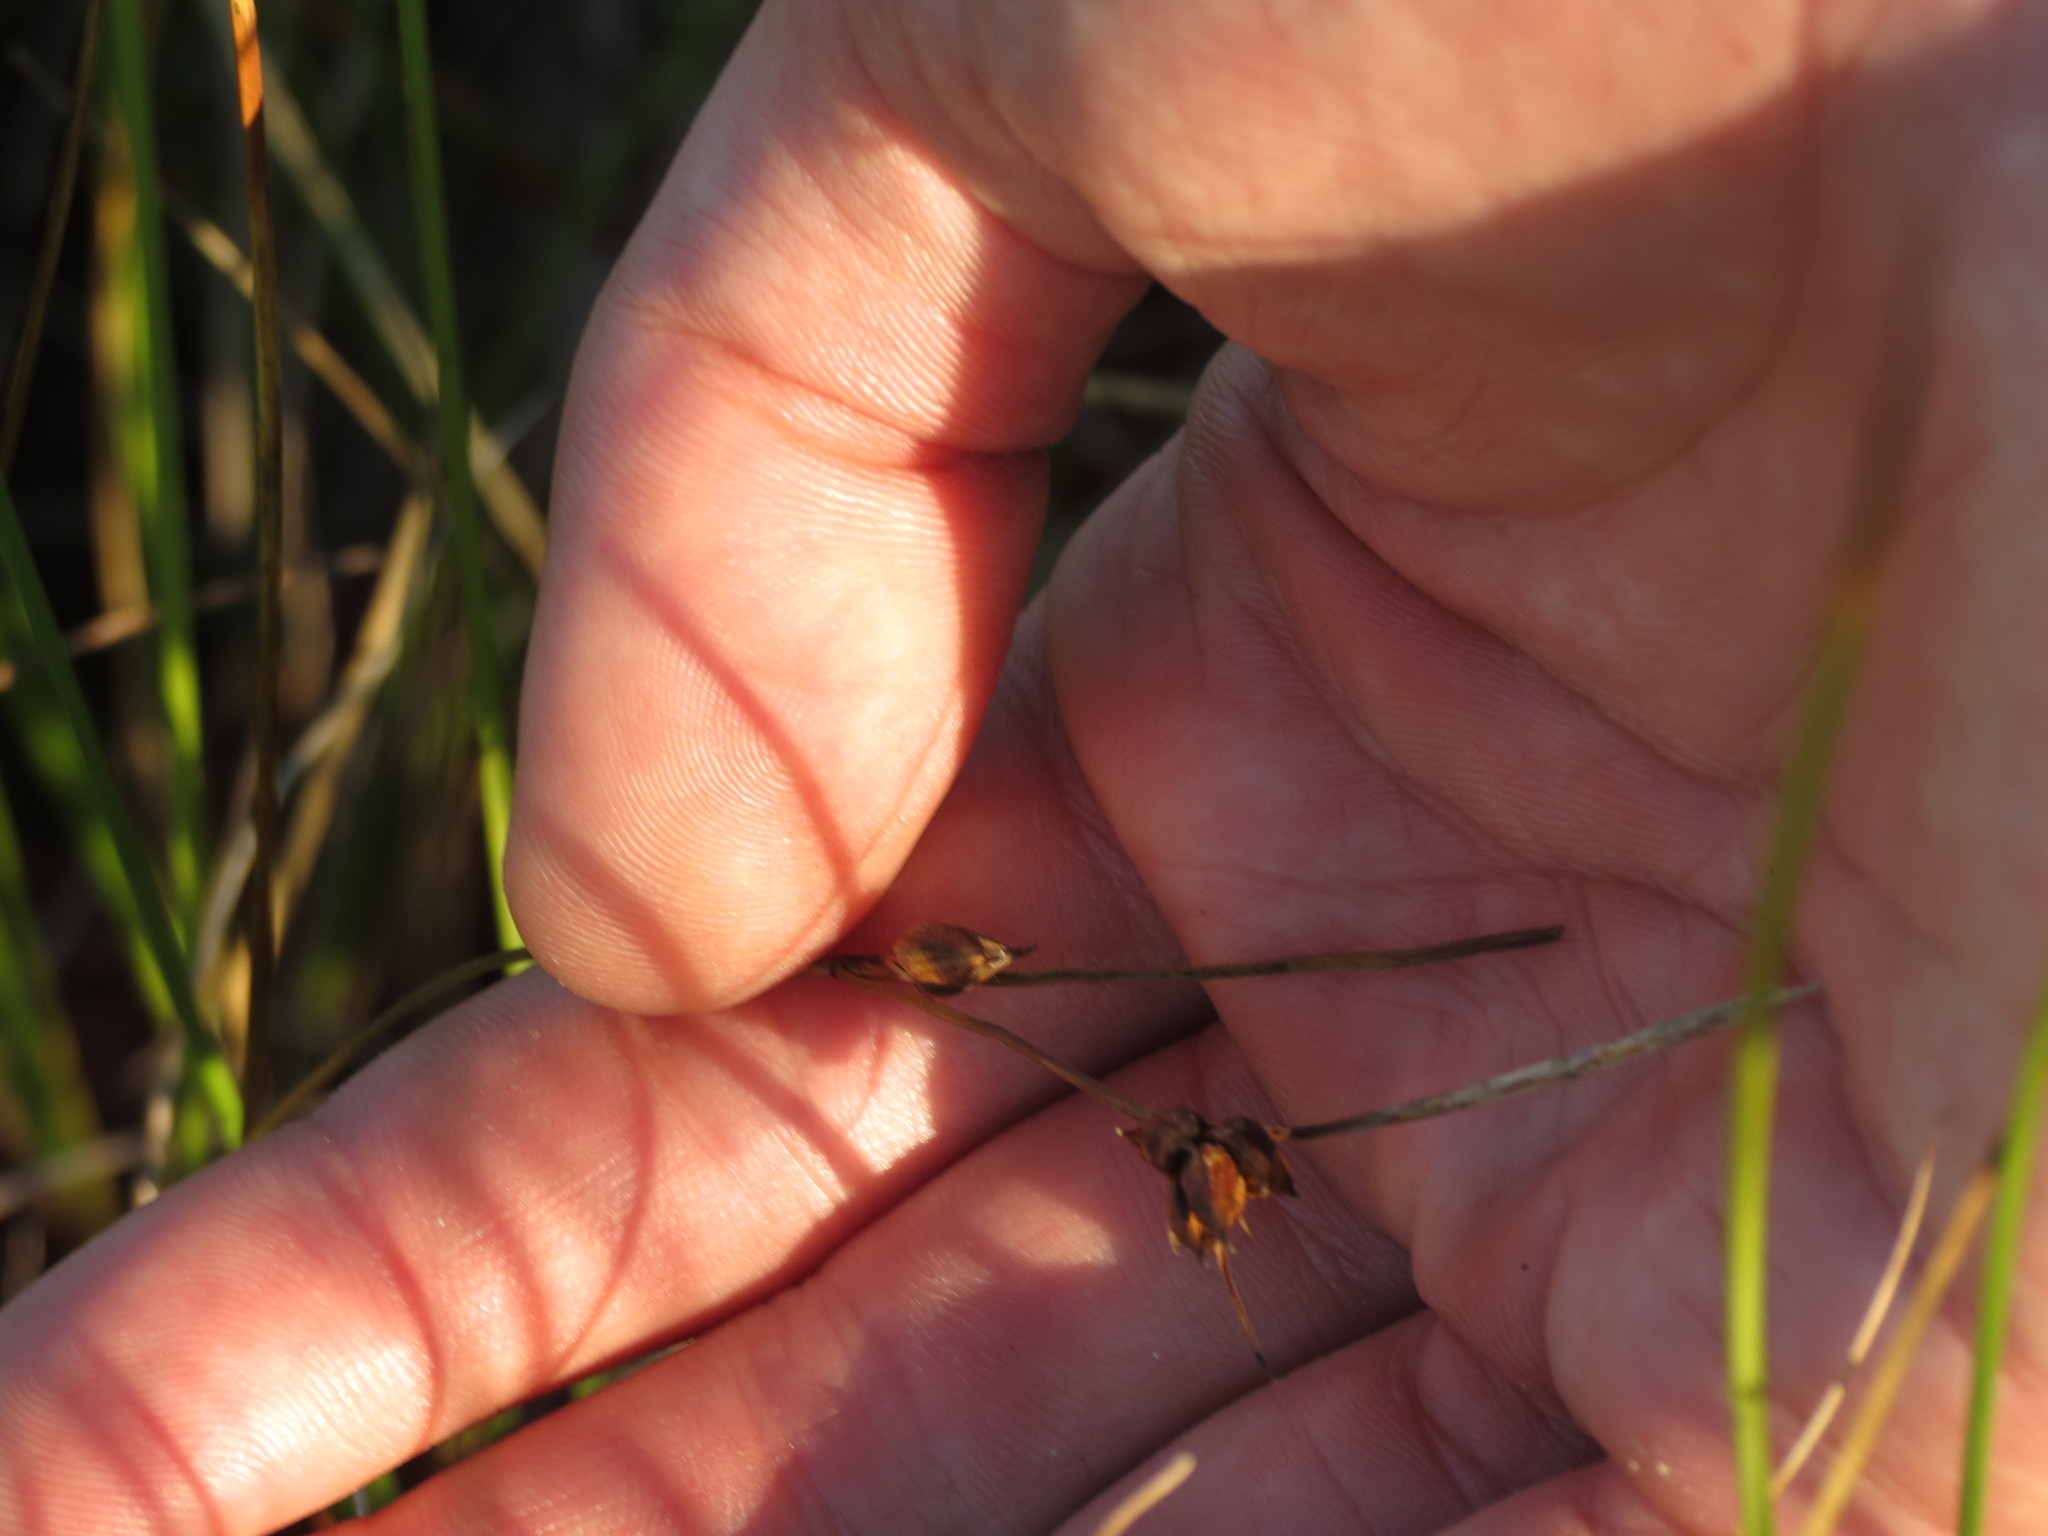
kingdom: Plantae
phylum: Tracheophyta
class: Liliopsida
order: Poales
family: Cyperaceae
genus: Carex
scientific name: Carex oligosperma
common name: Few-seed sedge
